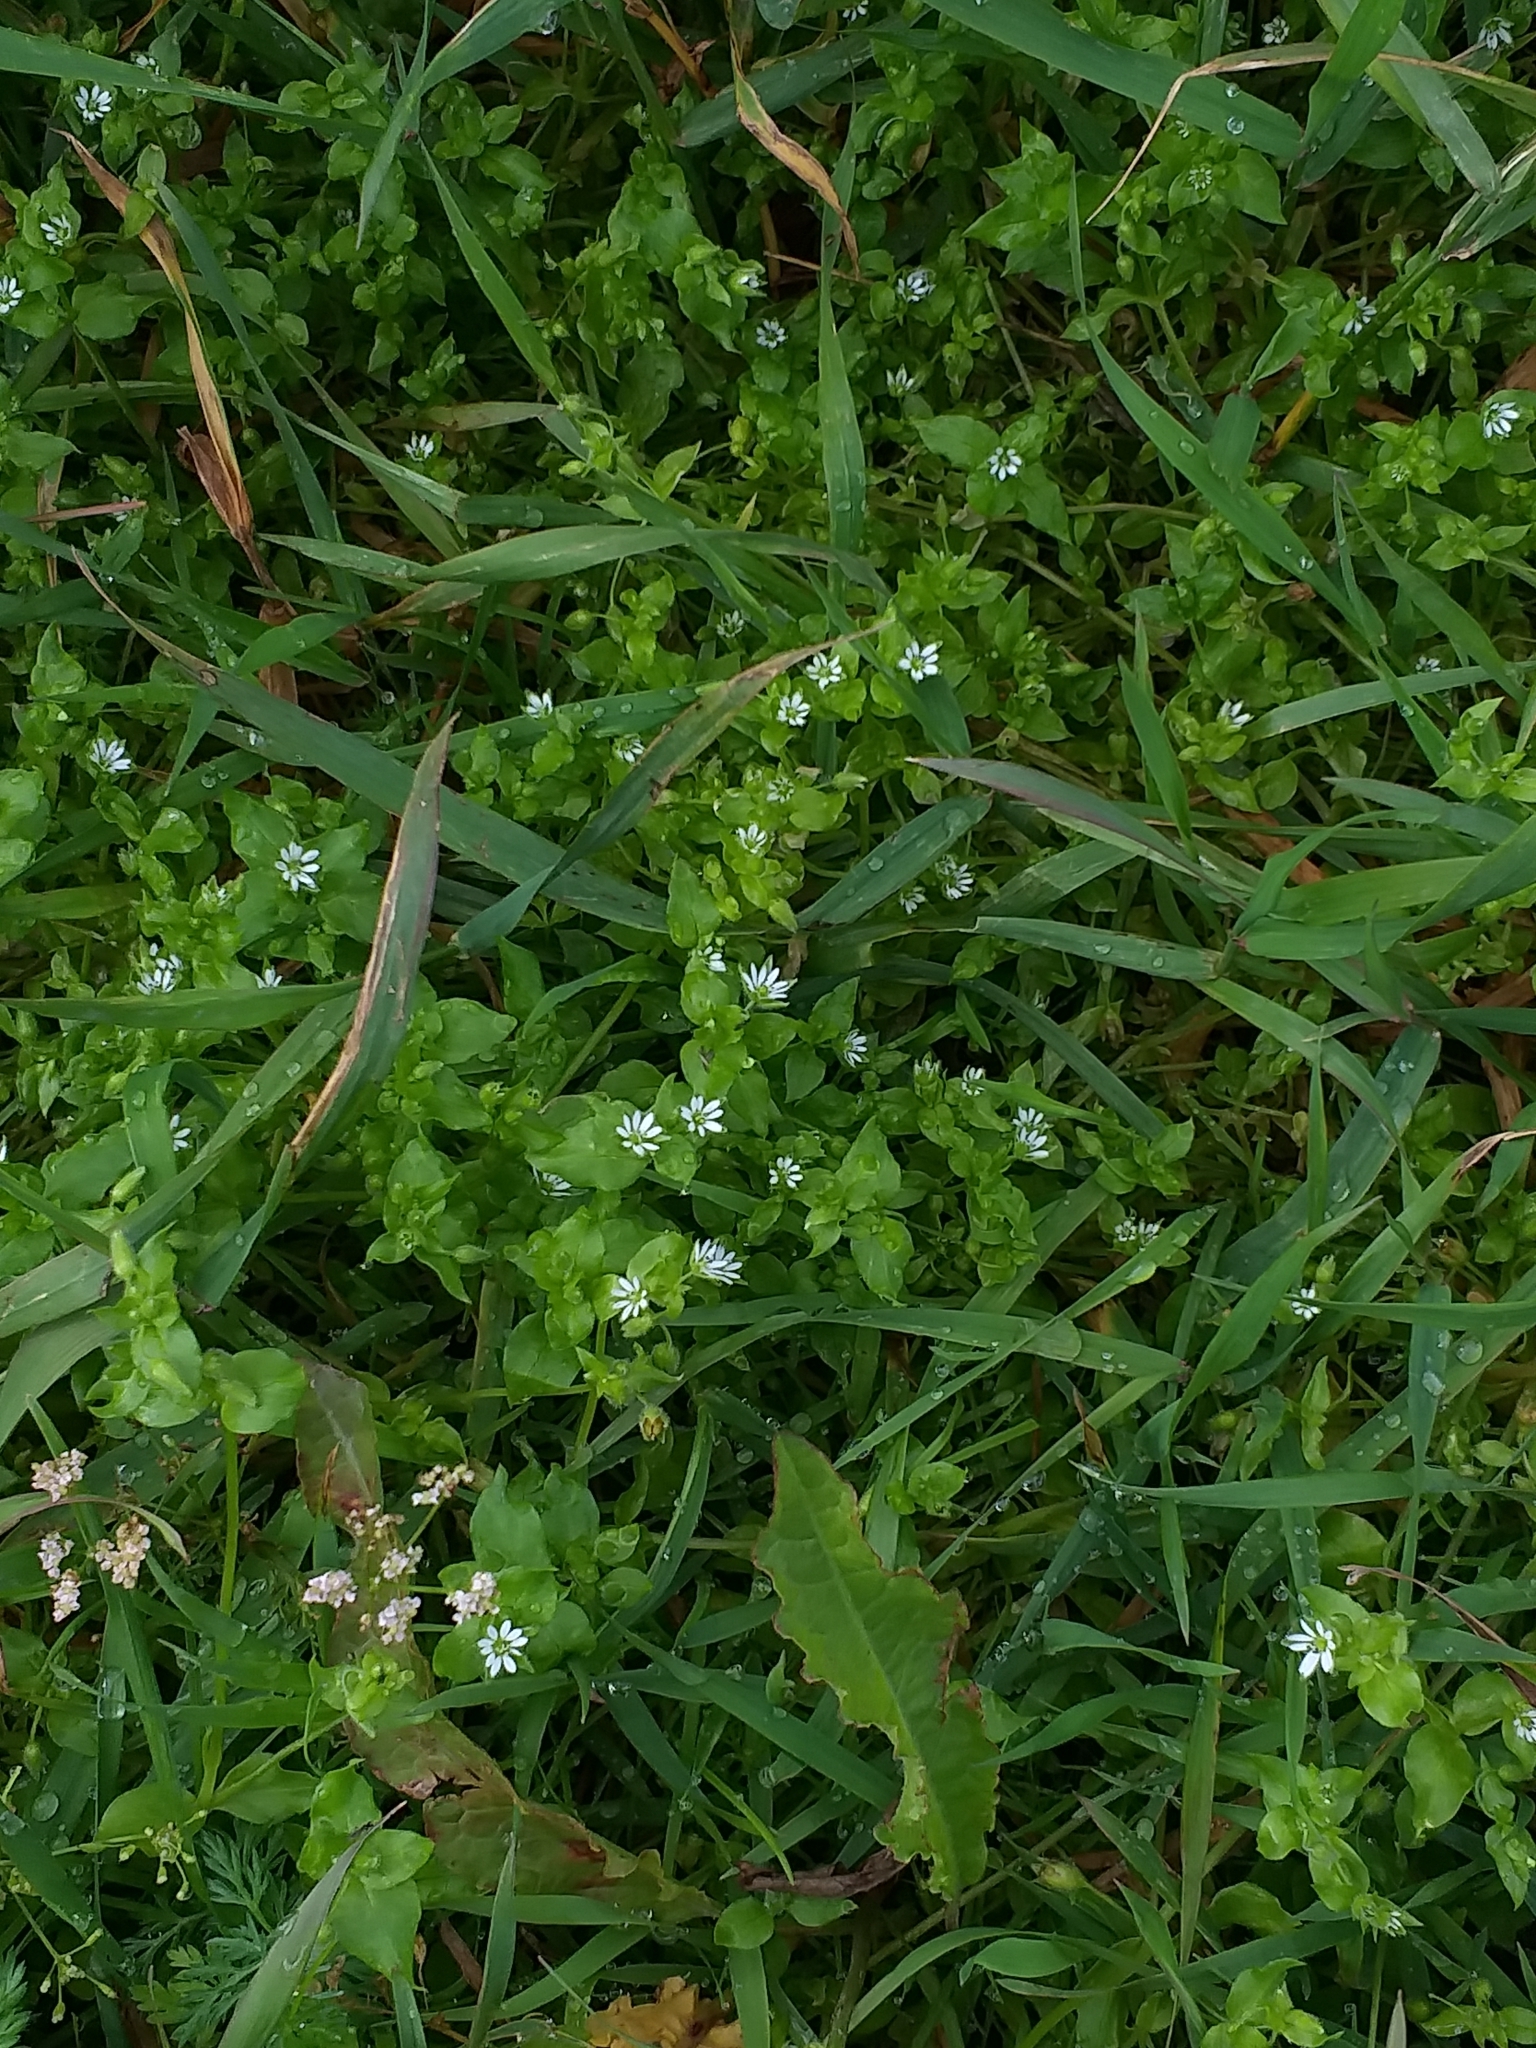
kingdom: Plantae
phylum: Tracheophyta
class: Magnoliopsida
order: Caryophyllales
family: Caryophyllaceae
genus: Stellaria
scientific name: Stellaria media
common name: Common chickweed
